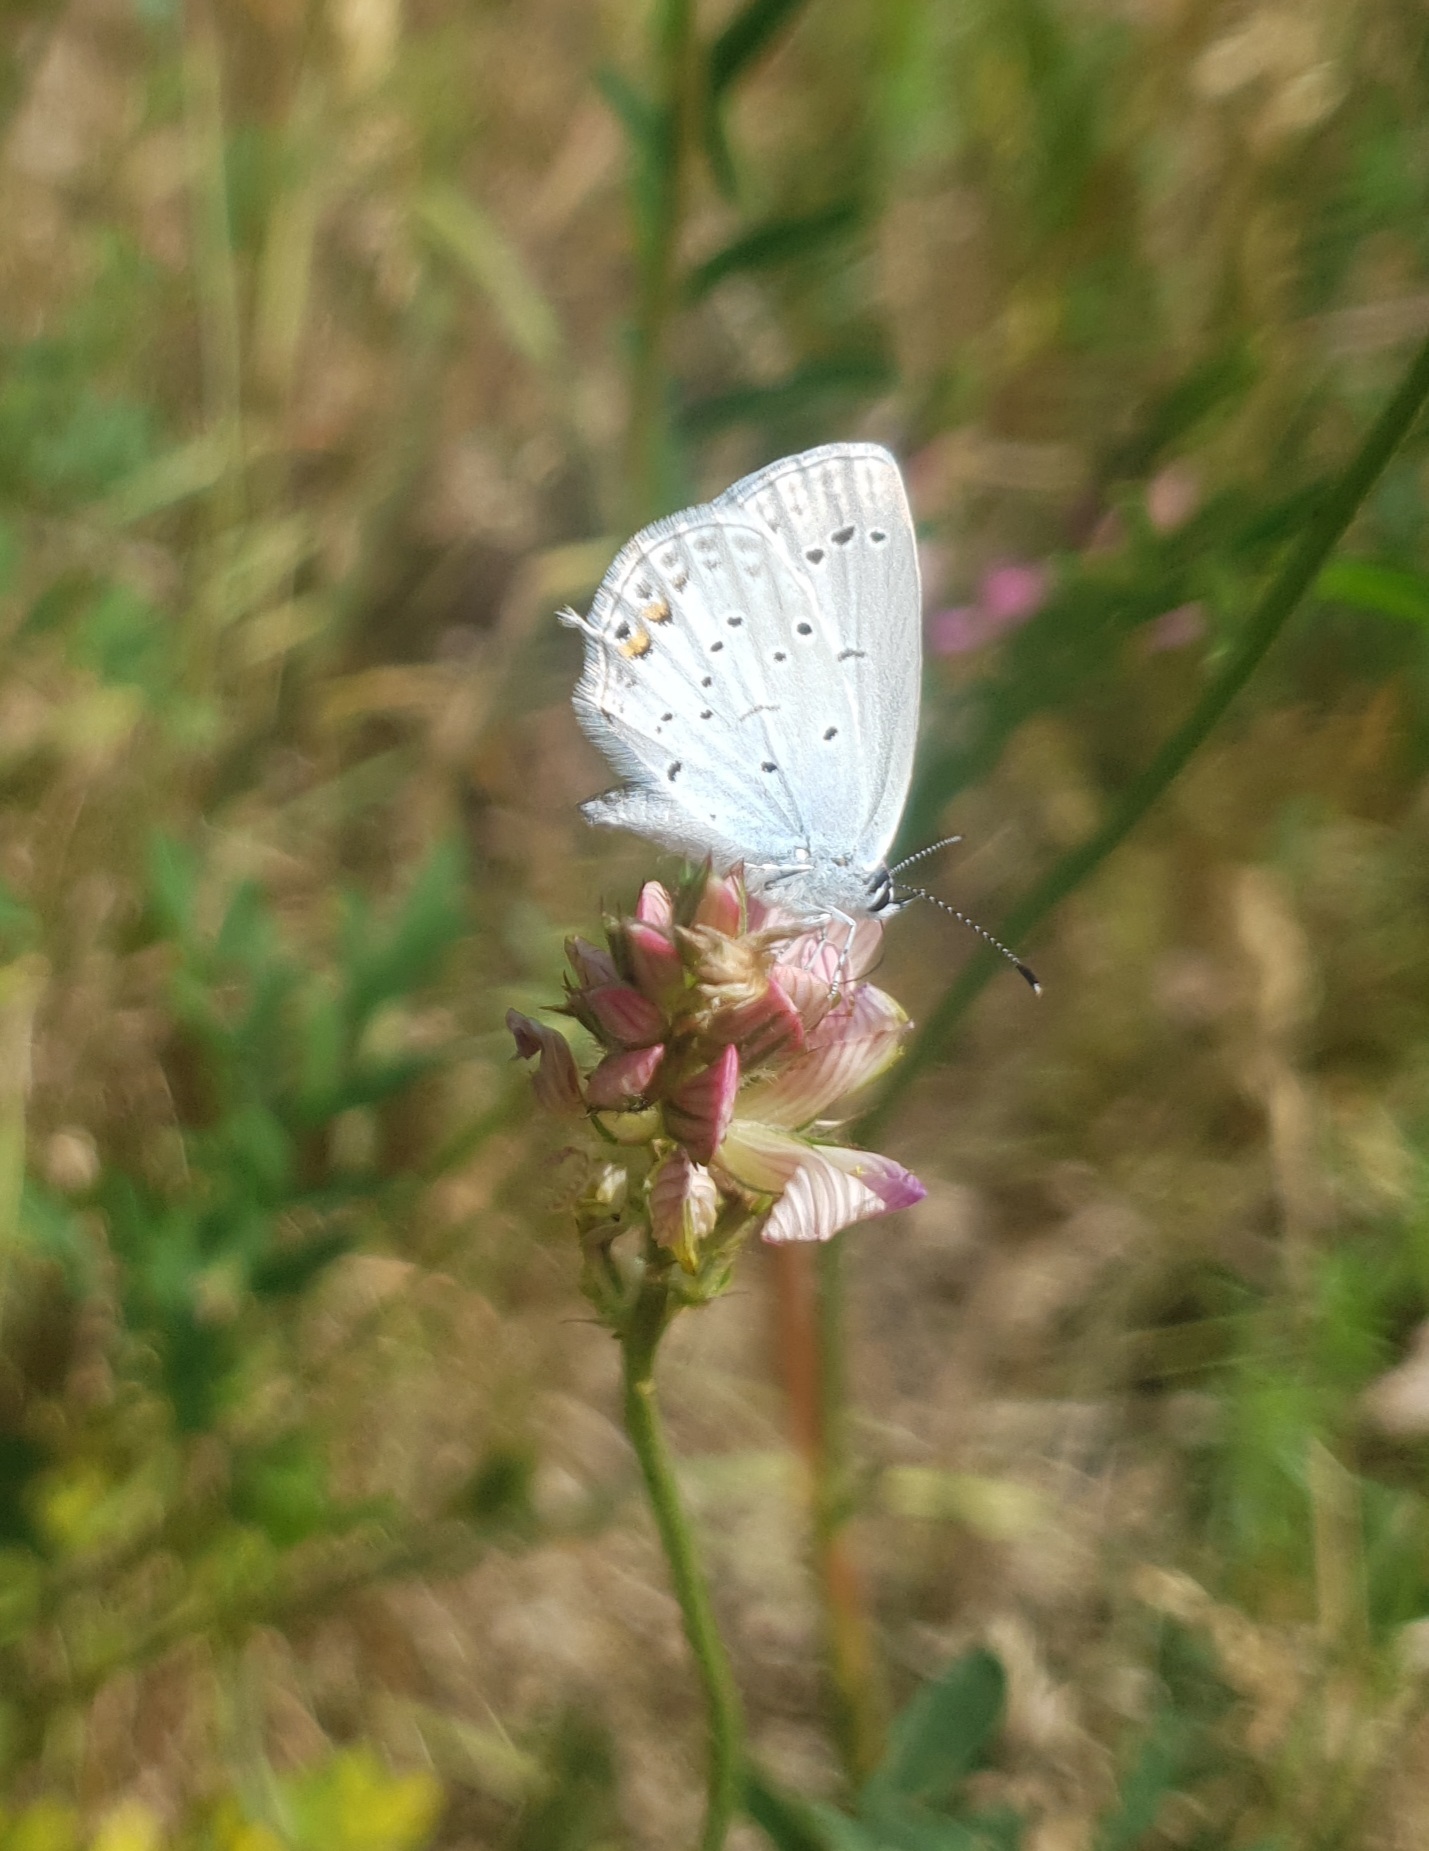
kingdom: Animalia
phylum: Arthropoda
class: Insecta
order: Lepidoptera
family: Lycaenidae
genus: Elkalyce
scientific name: Elkalyce argiades
